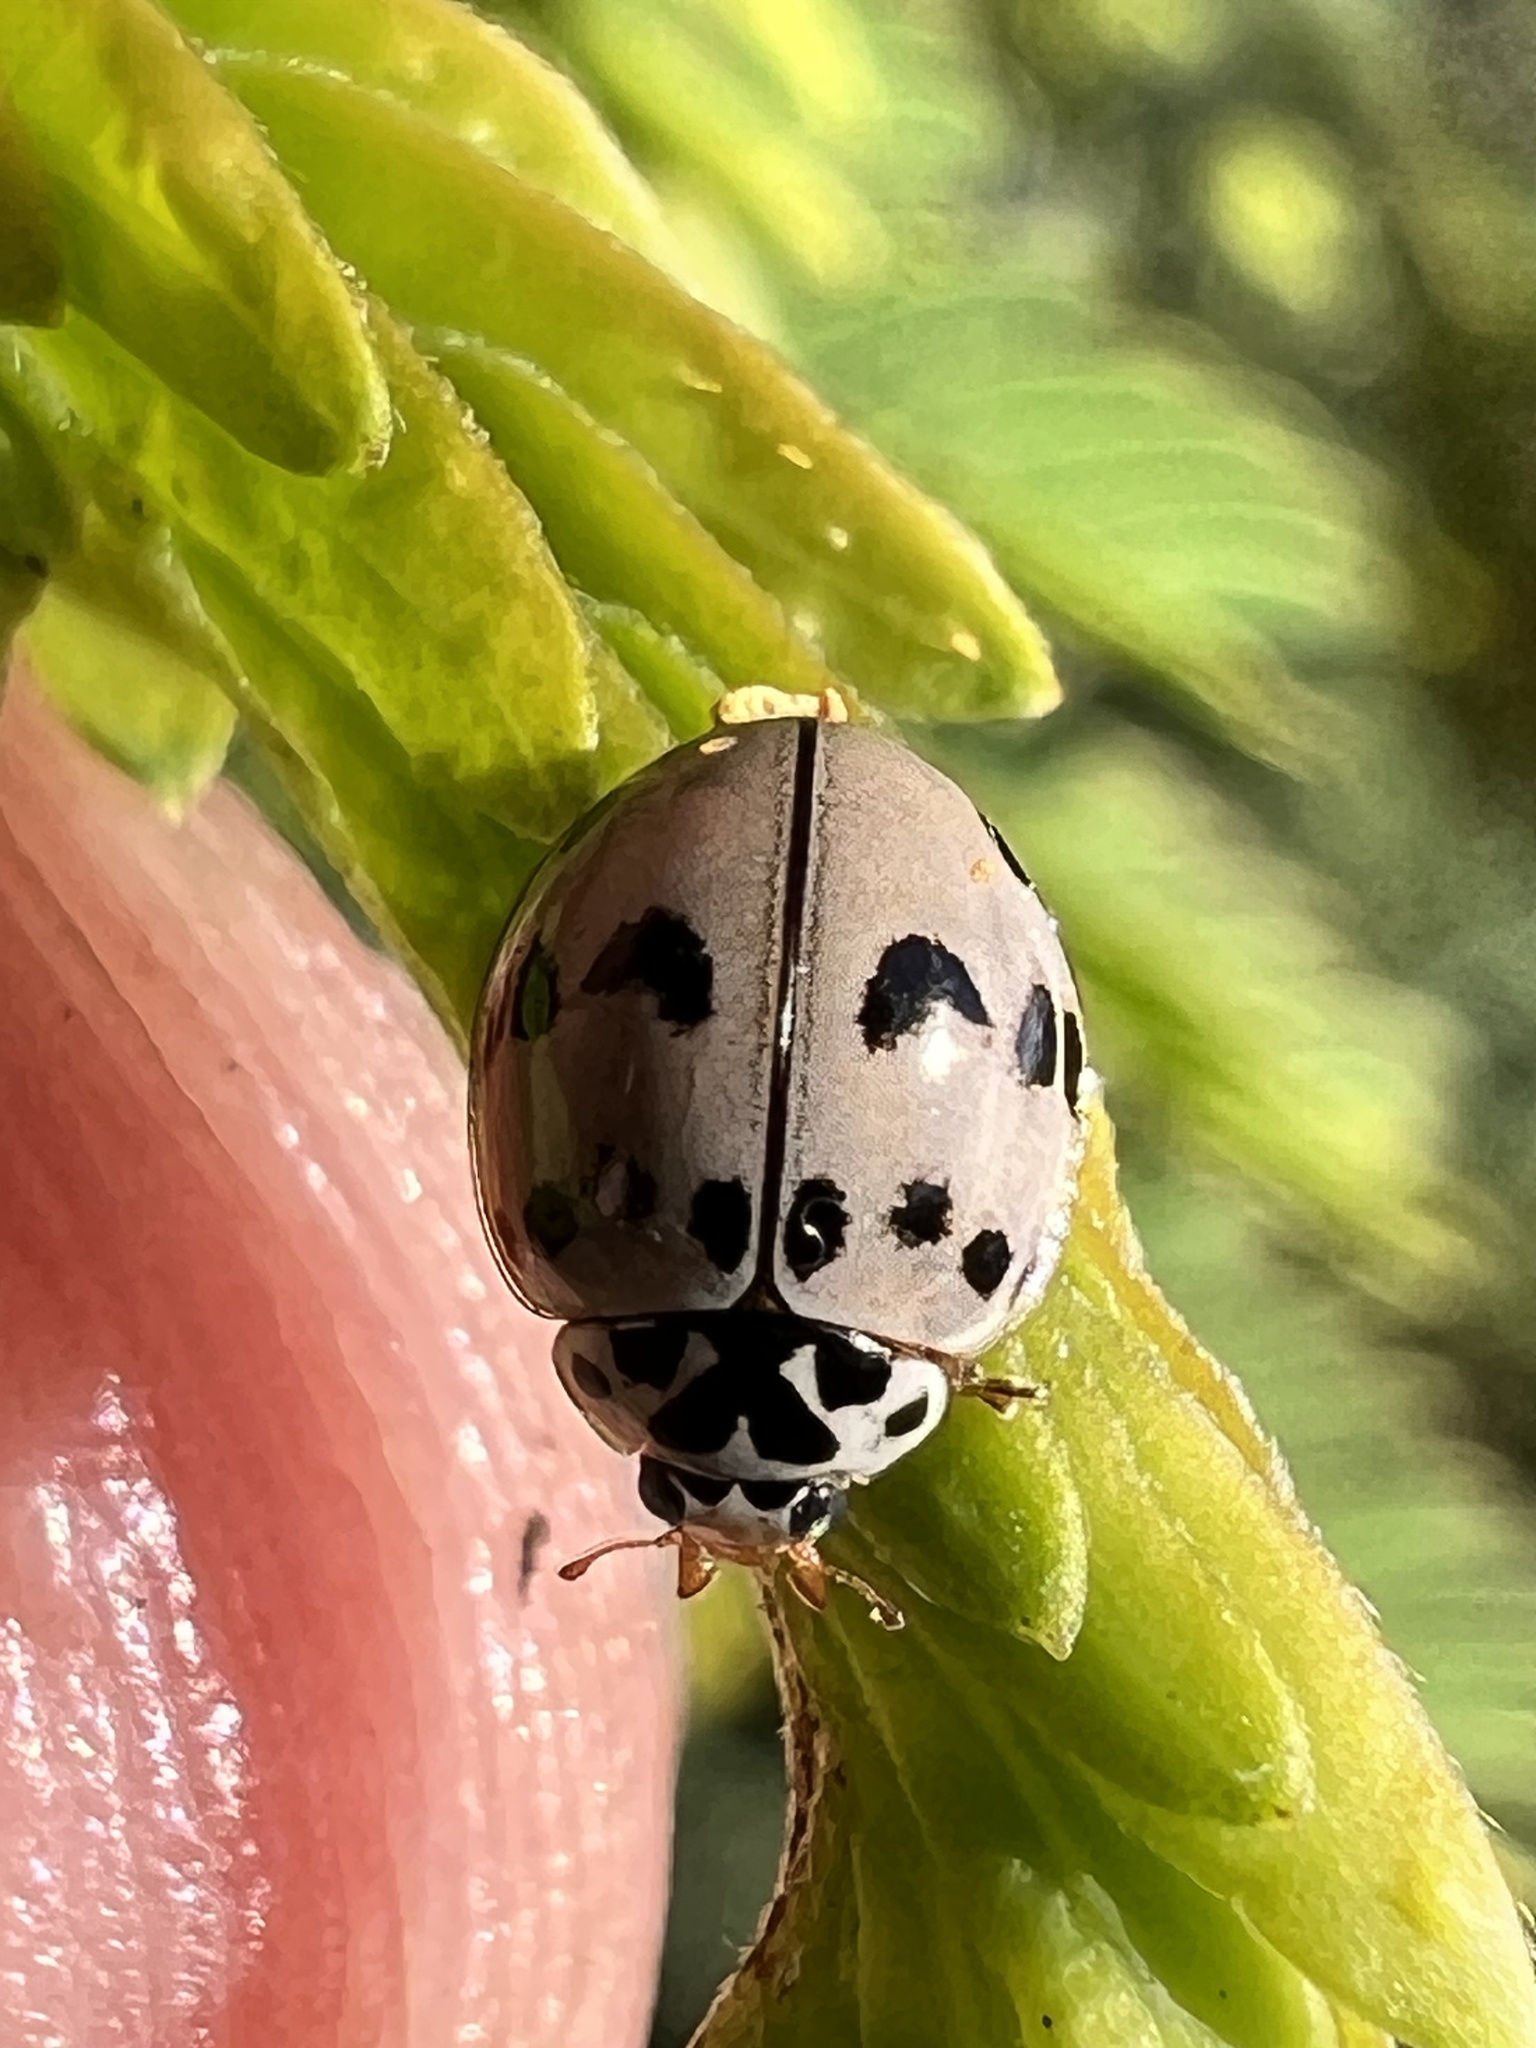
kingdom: Animalia
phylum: Arthropoda
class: Insecta
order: Coleoptera
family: Coccinellidae
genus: Olla
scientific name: Olla v-nigrum
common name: Ashy gray lady beetle
